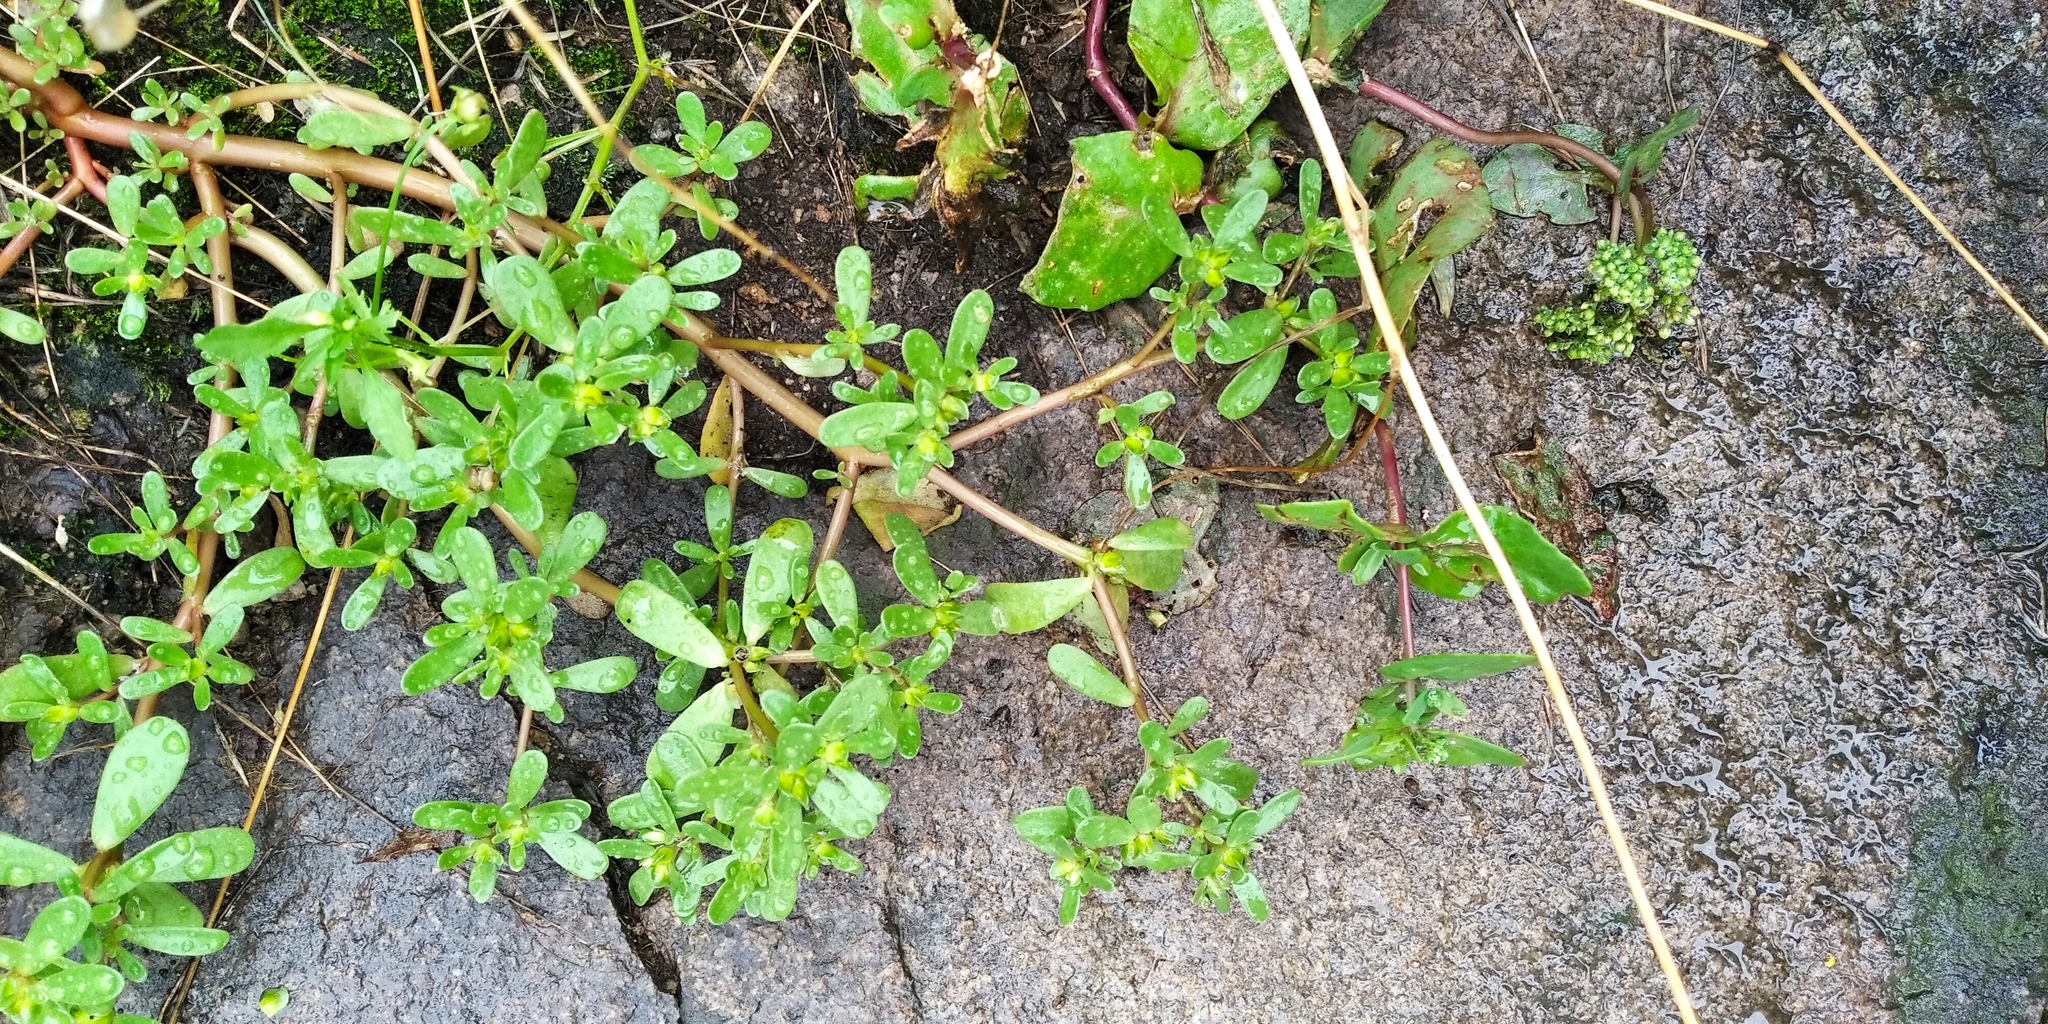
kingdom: Plantae
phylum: Tracheophyta
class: Magnoliopsida
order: Caryophyllales
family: Portulacaceae
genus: Portulaca
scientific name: Portulaca oleracea
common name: Common purslane
